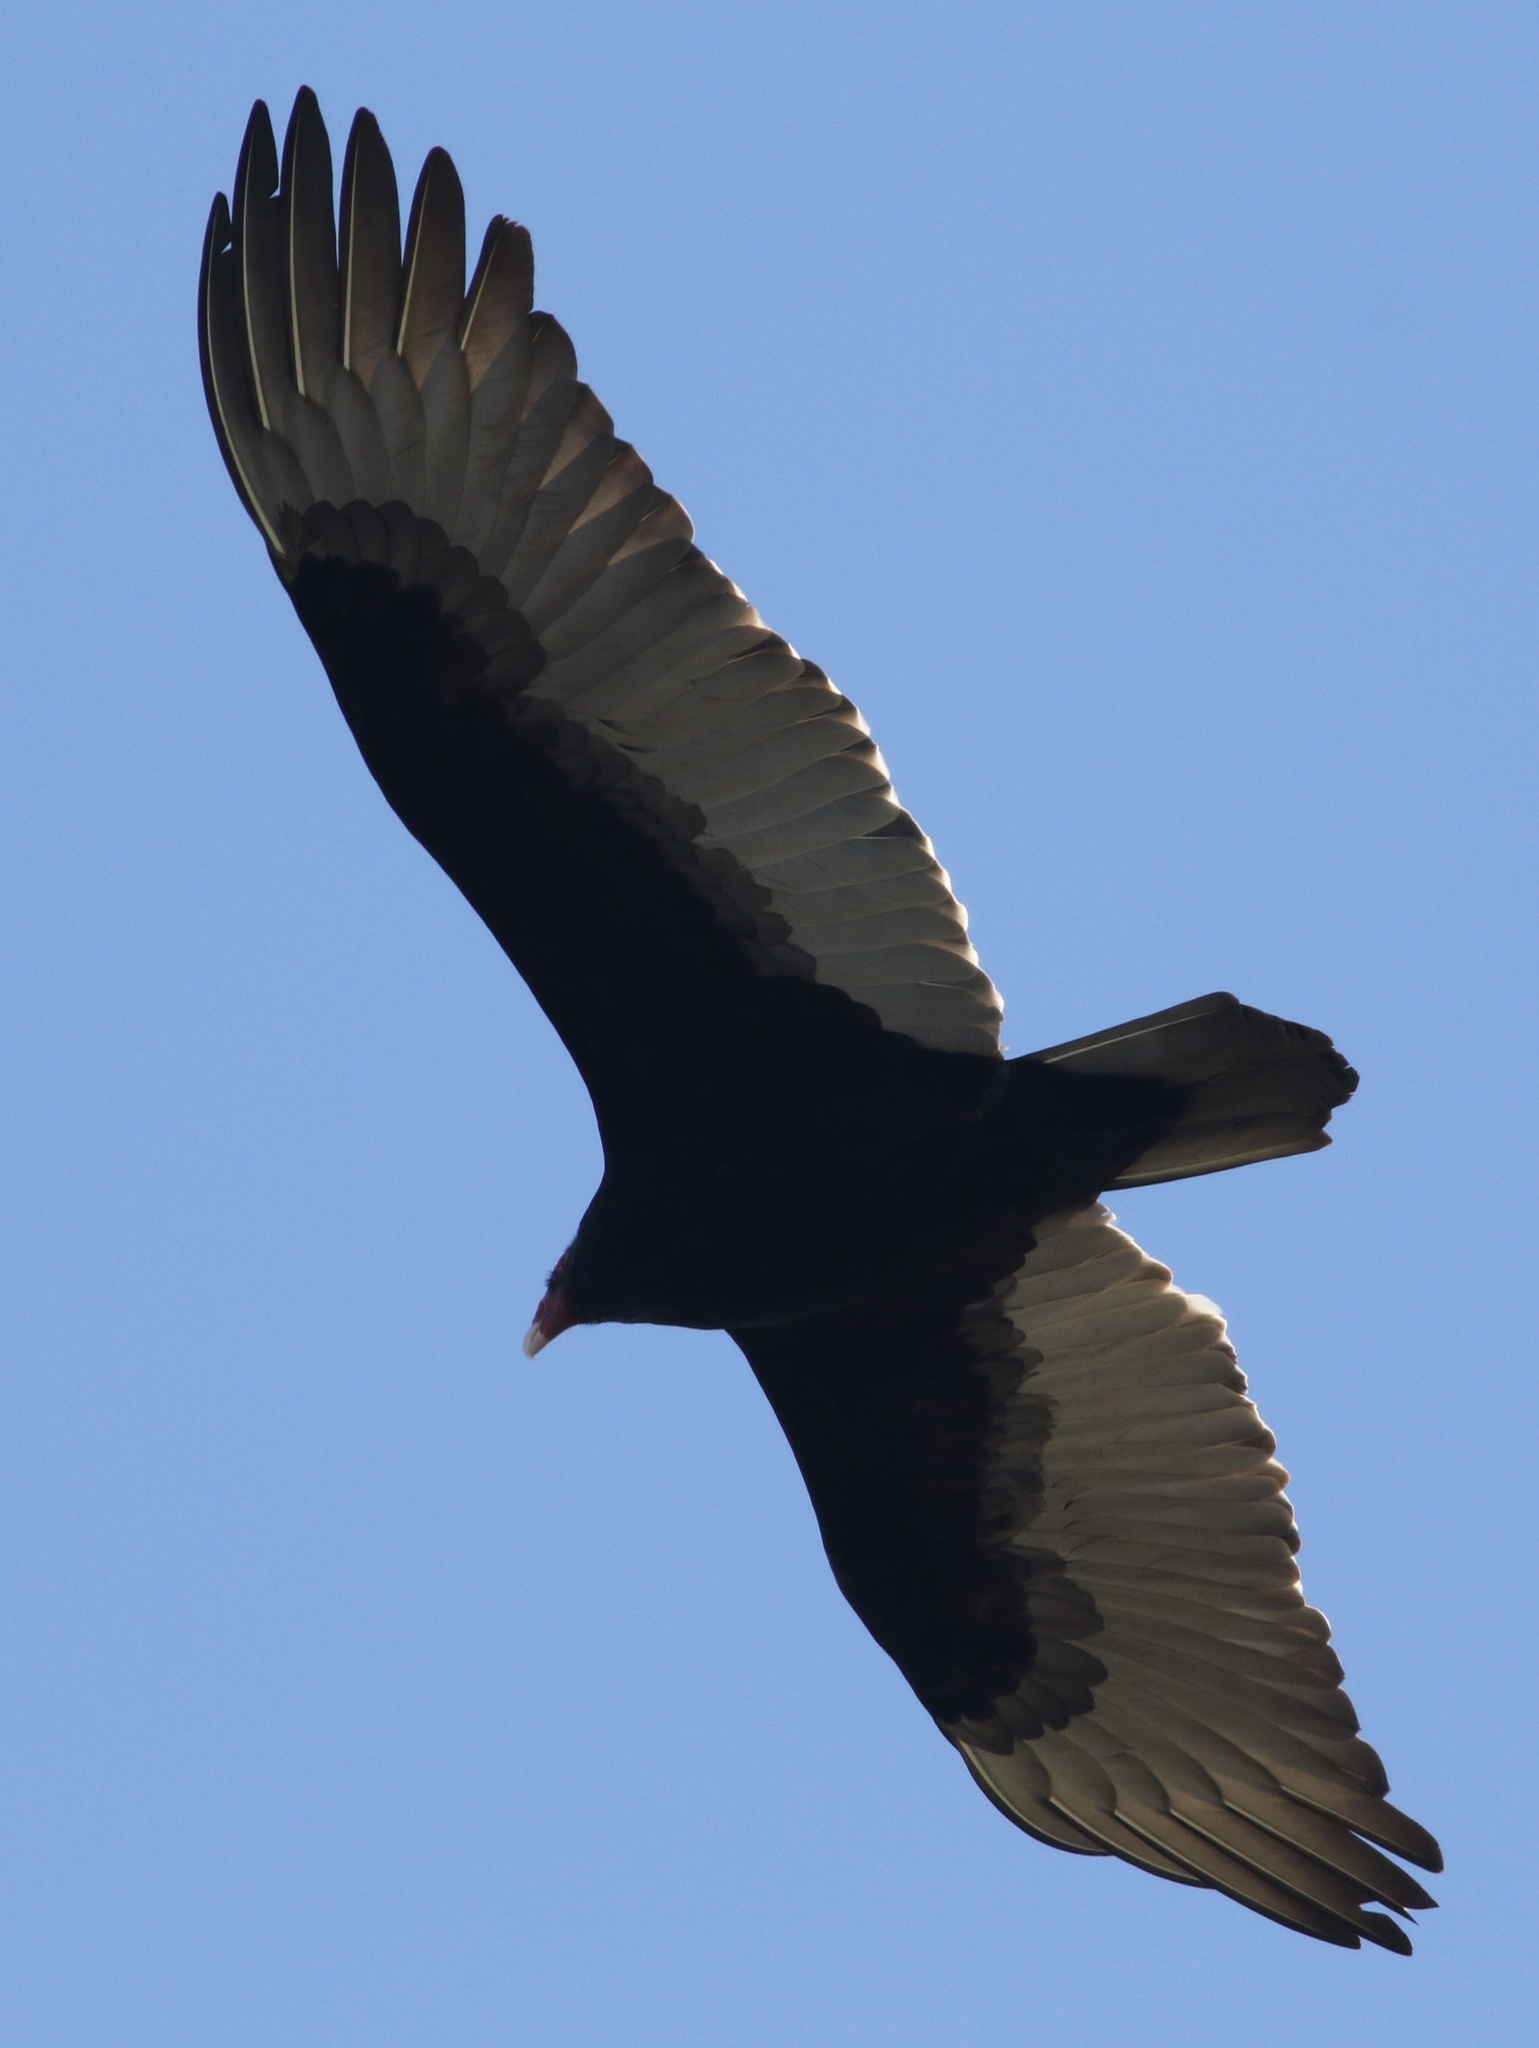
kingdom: Animalia
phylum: Chordata
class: Aves
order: Accipitriformes
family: Cathartidae
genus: Cathartes
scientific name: Cathartes aura
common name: Turkey vulture
